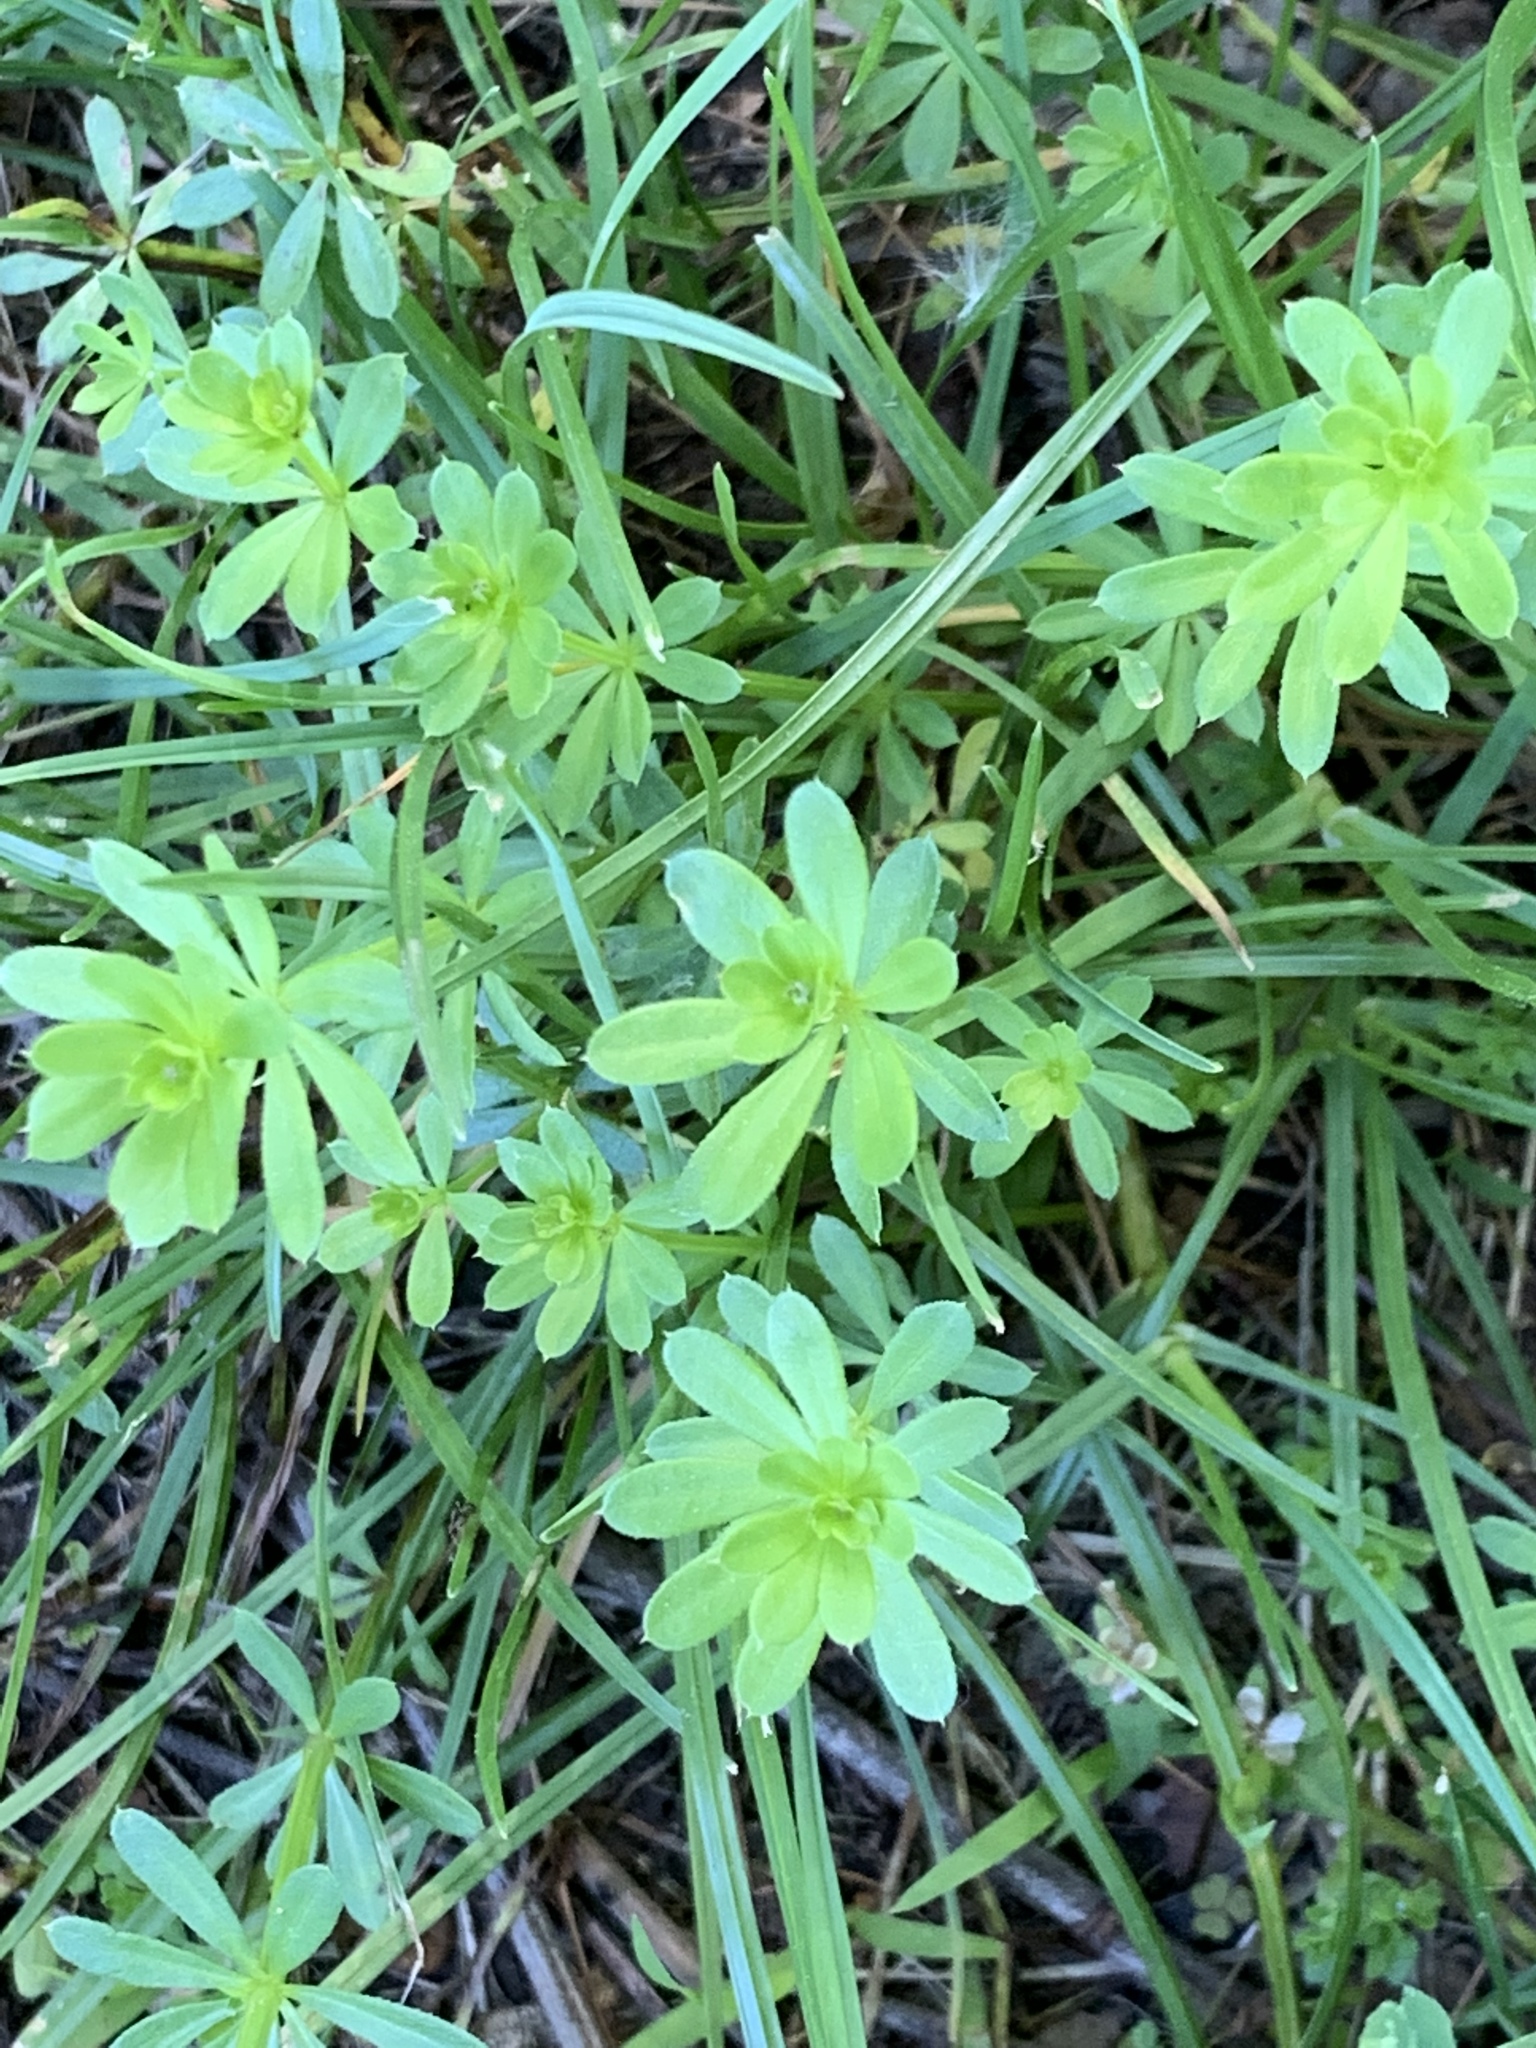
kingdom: Plantae
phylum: Tracheophyta
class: Magnoliopsida
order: Gentianales
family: Rubiaceae
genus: Galium
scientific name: Galium mollugo
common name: Hedge bedstraw
